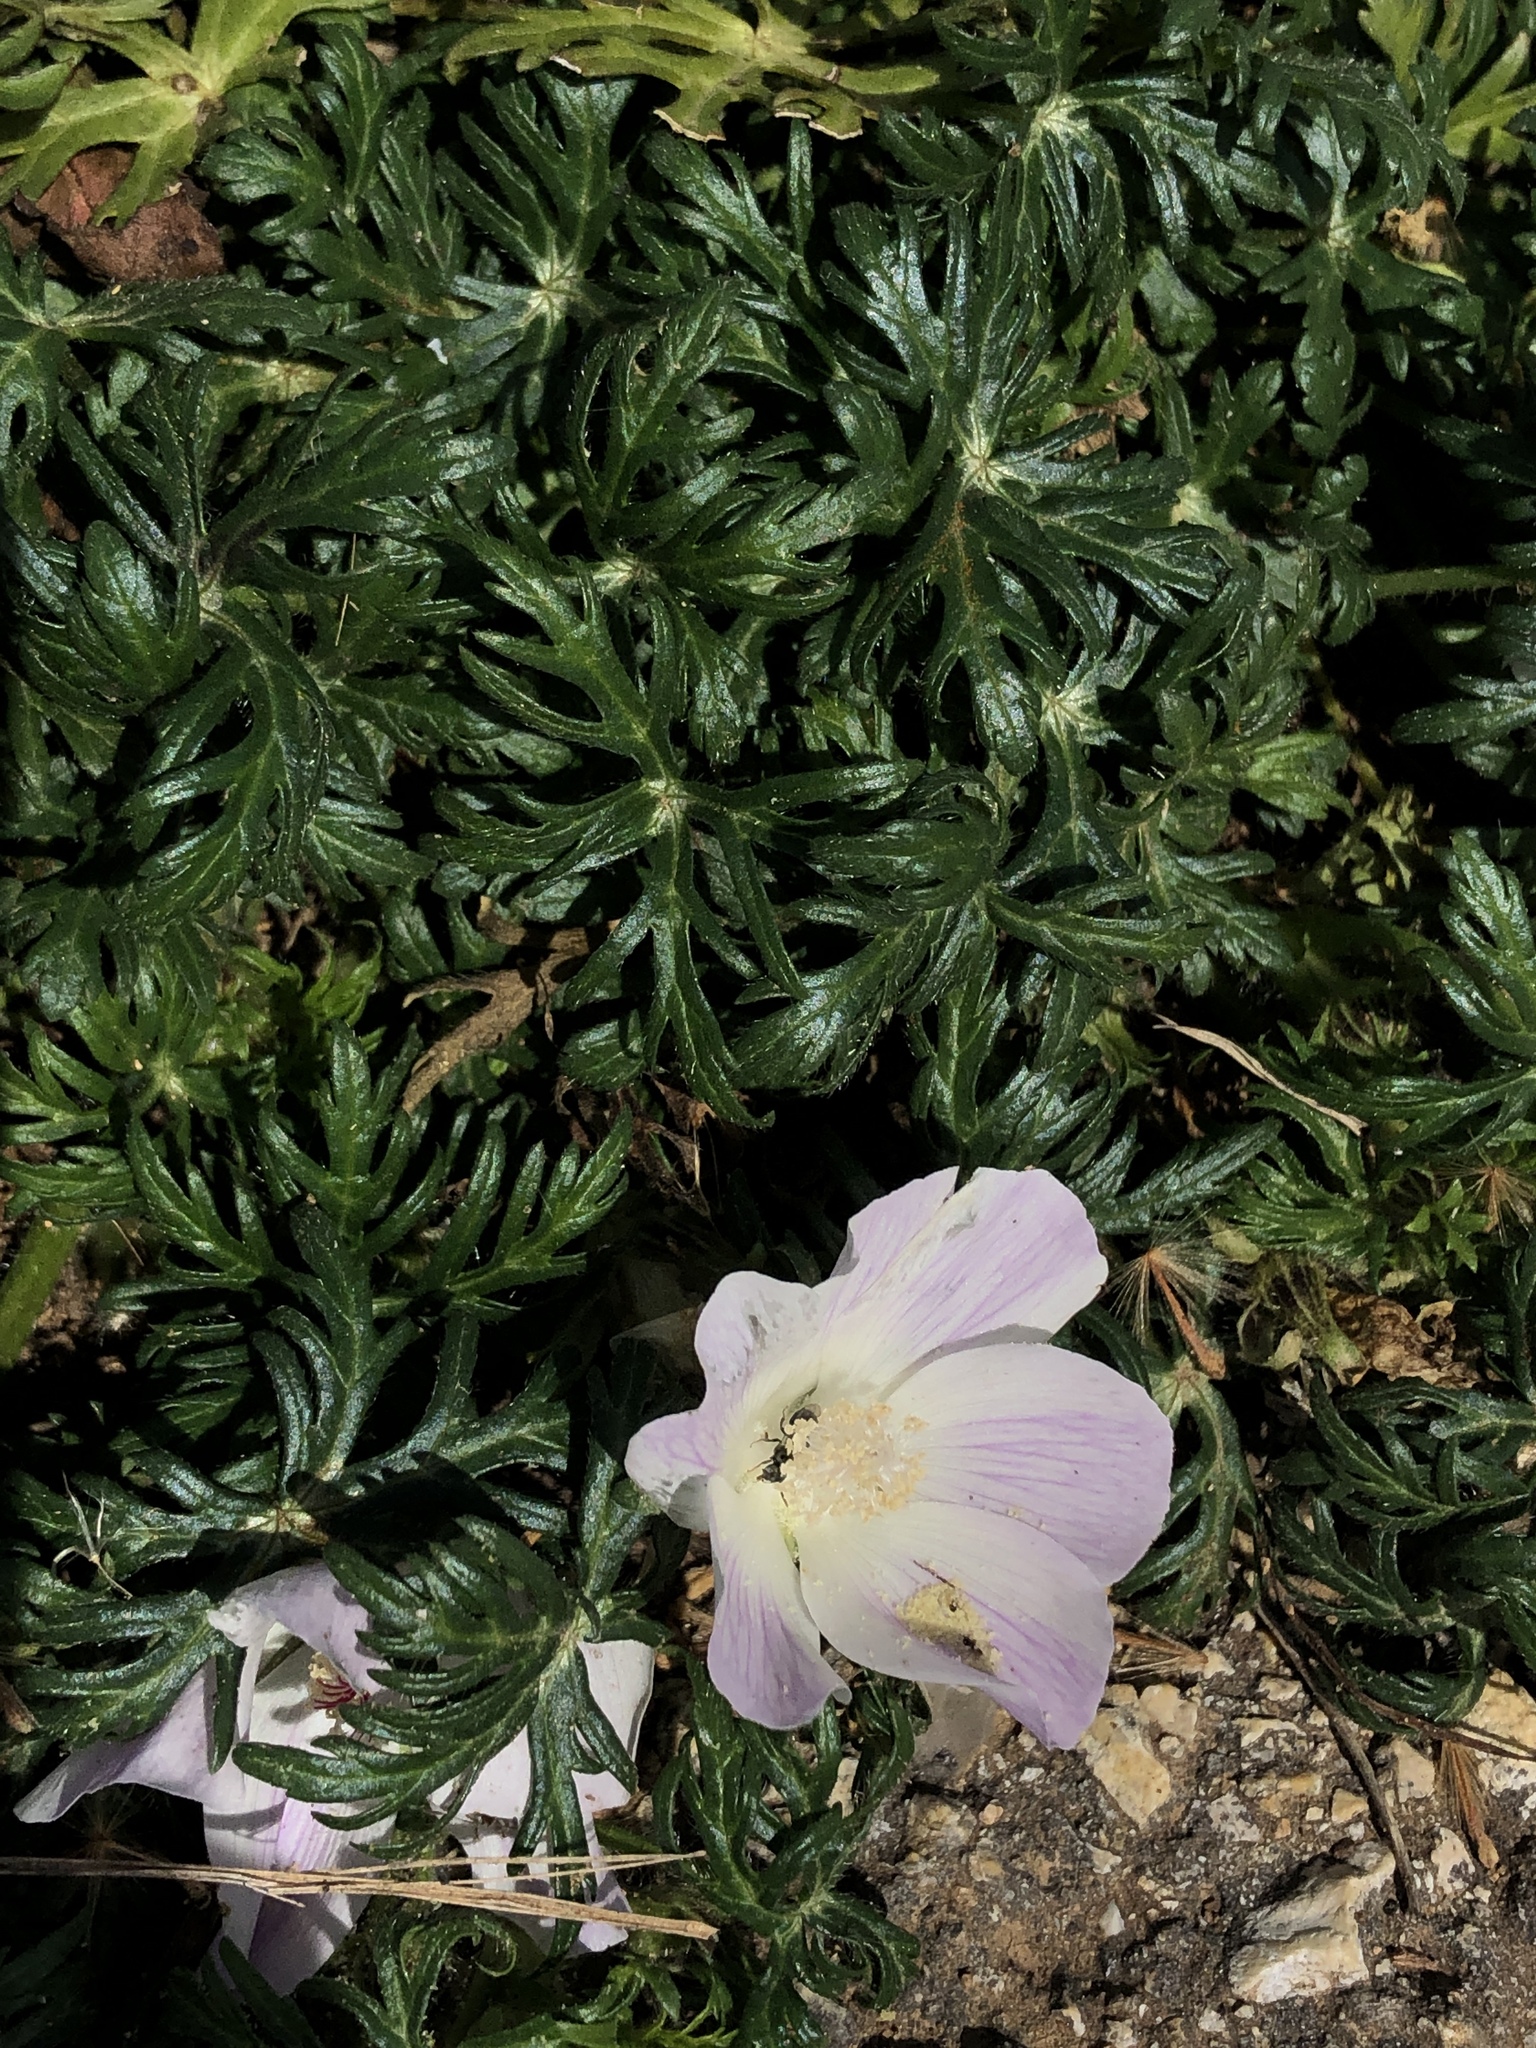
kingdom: Plantae
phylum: Tracheophyta
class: Magnoliopsida
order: Malvales
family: Malvaceae
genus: Callirhoe
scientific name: Callirhoe involucrata
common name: Purple poppy-mallow
